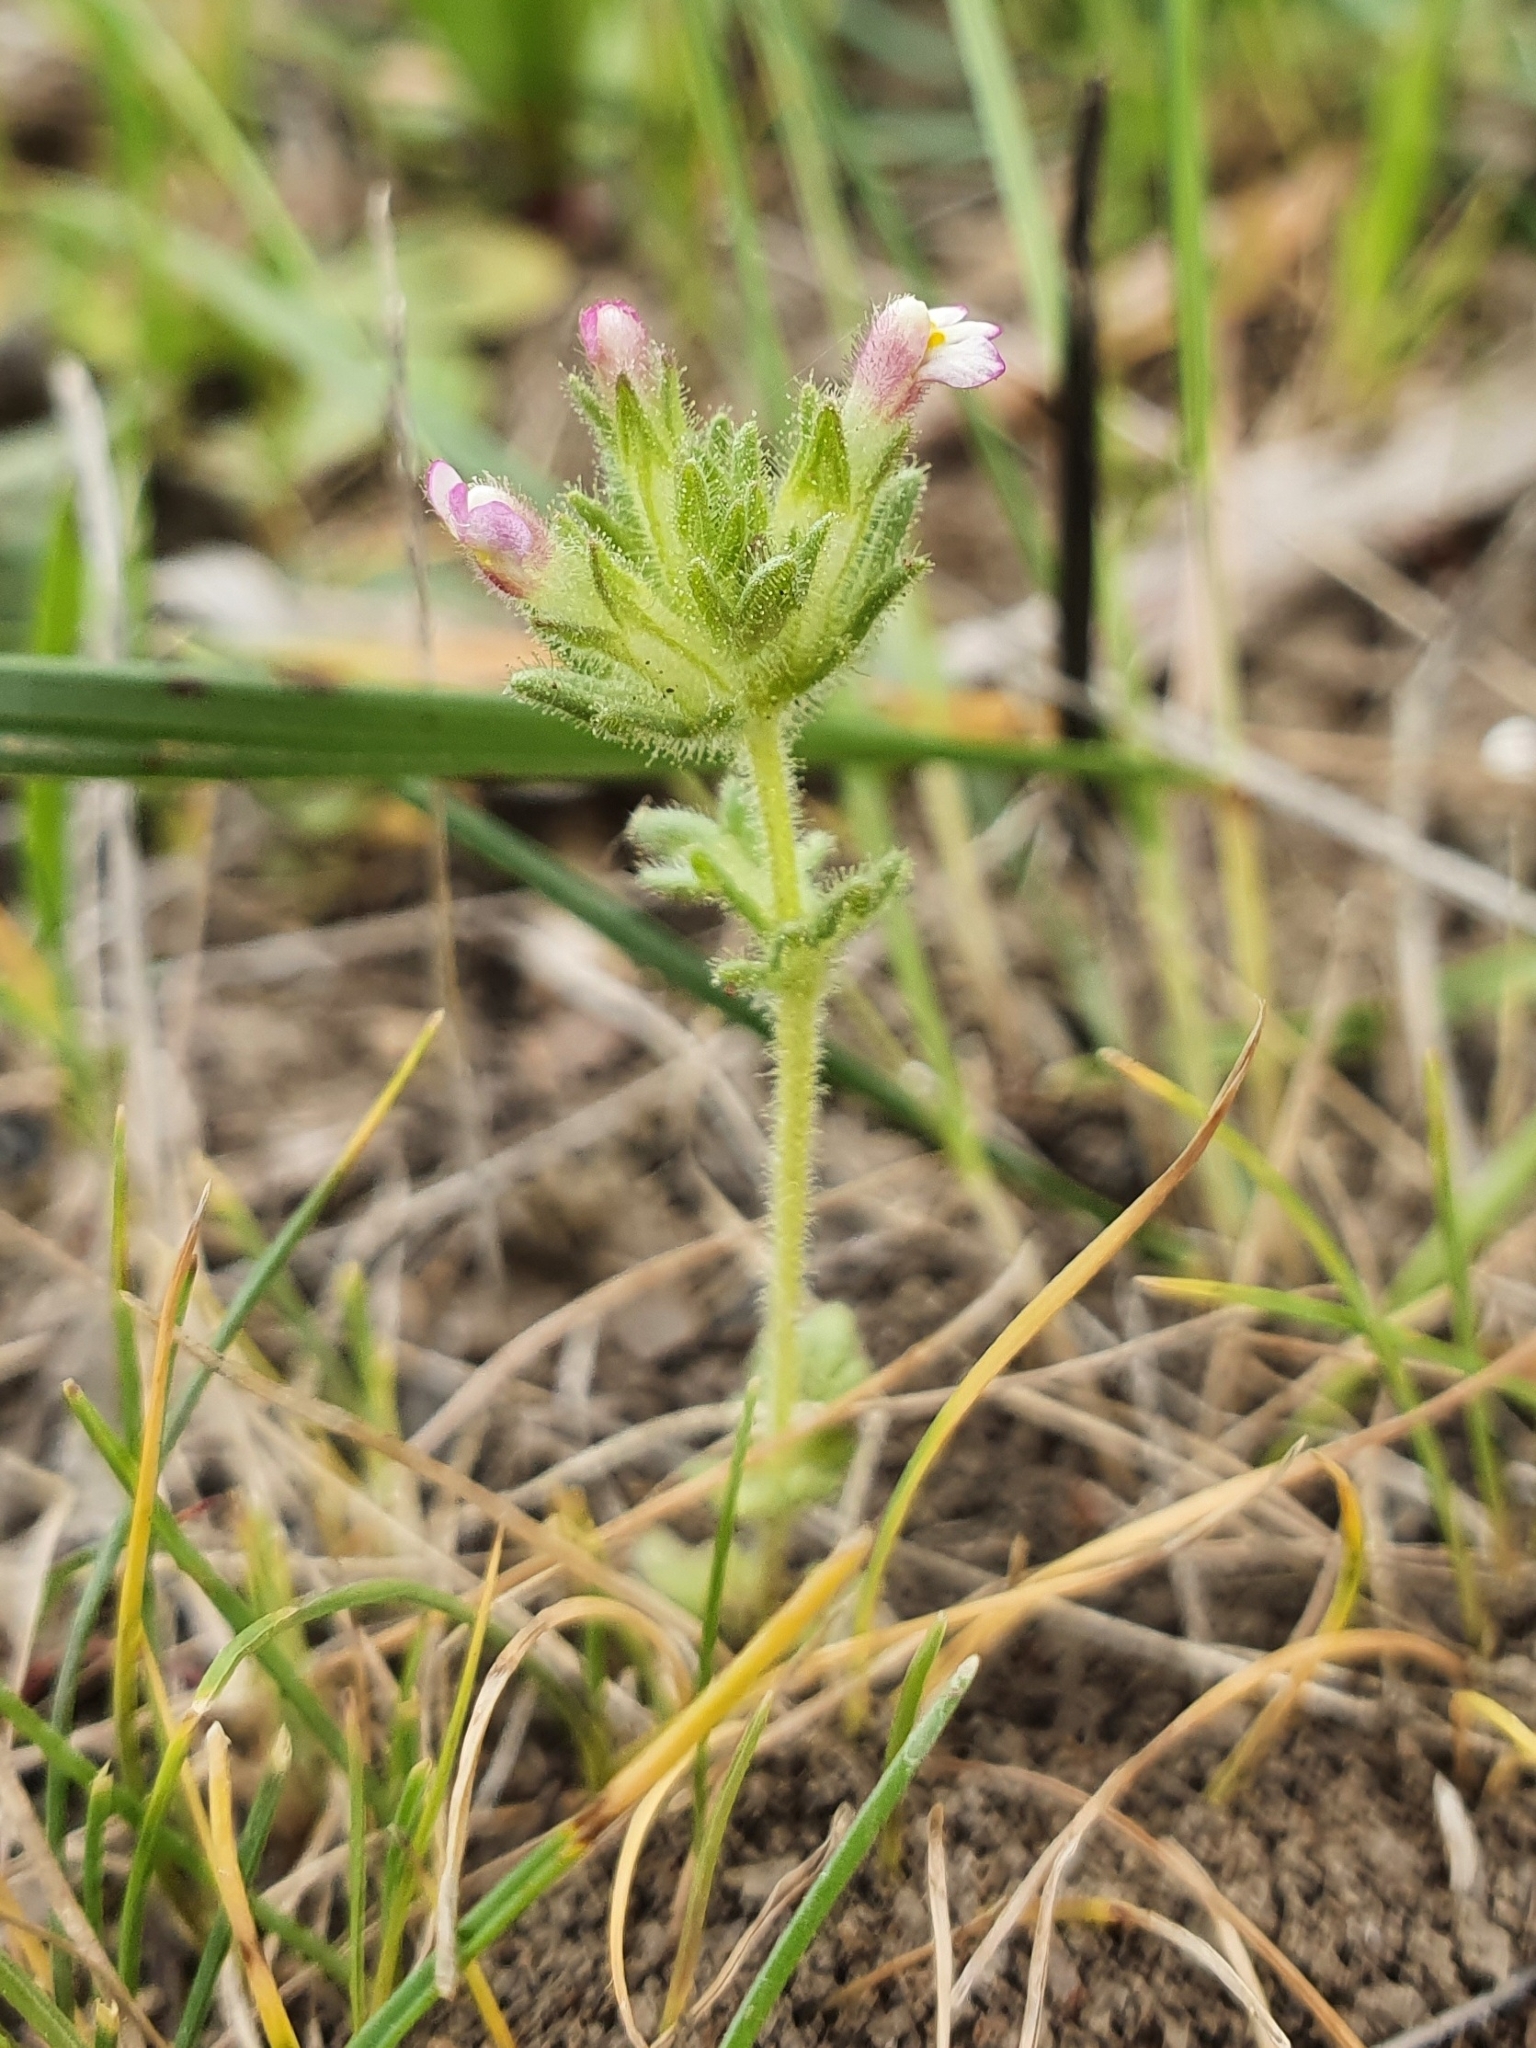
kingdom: Plantae
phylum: Tracheophyta
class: Magnoliopsida
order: Lamiales
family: Orobanchaceae
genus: Parentucellia
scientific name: Parentucellia latifolia
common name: Broadleaf glandweed
